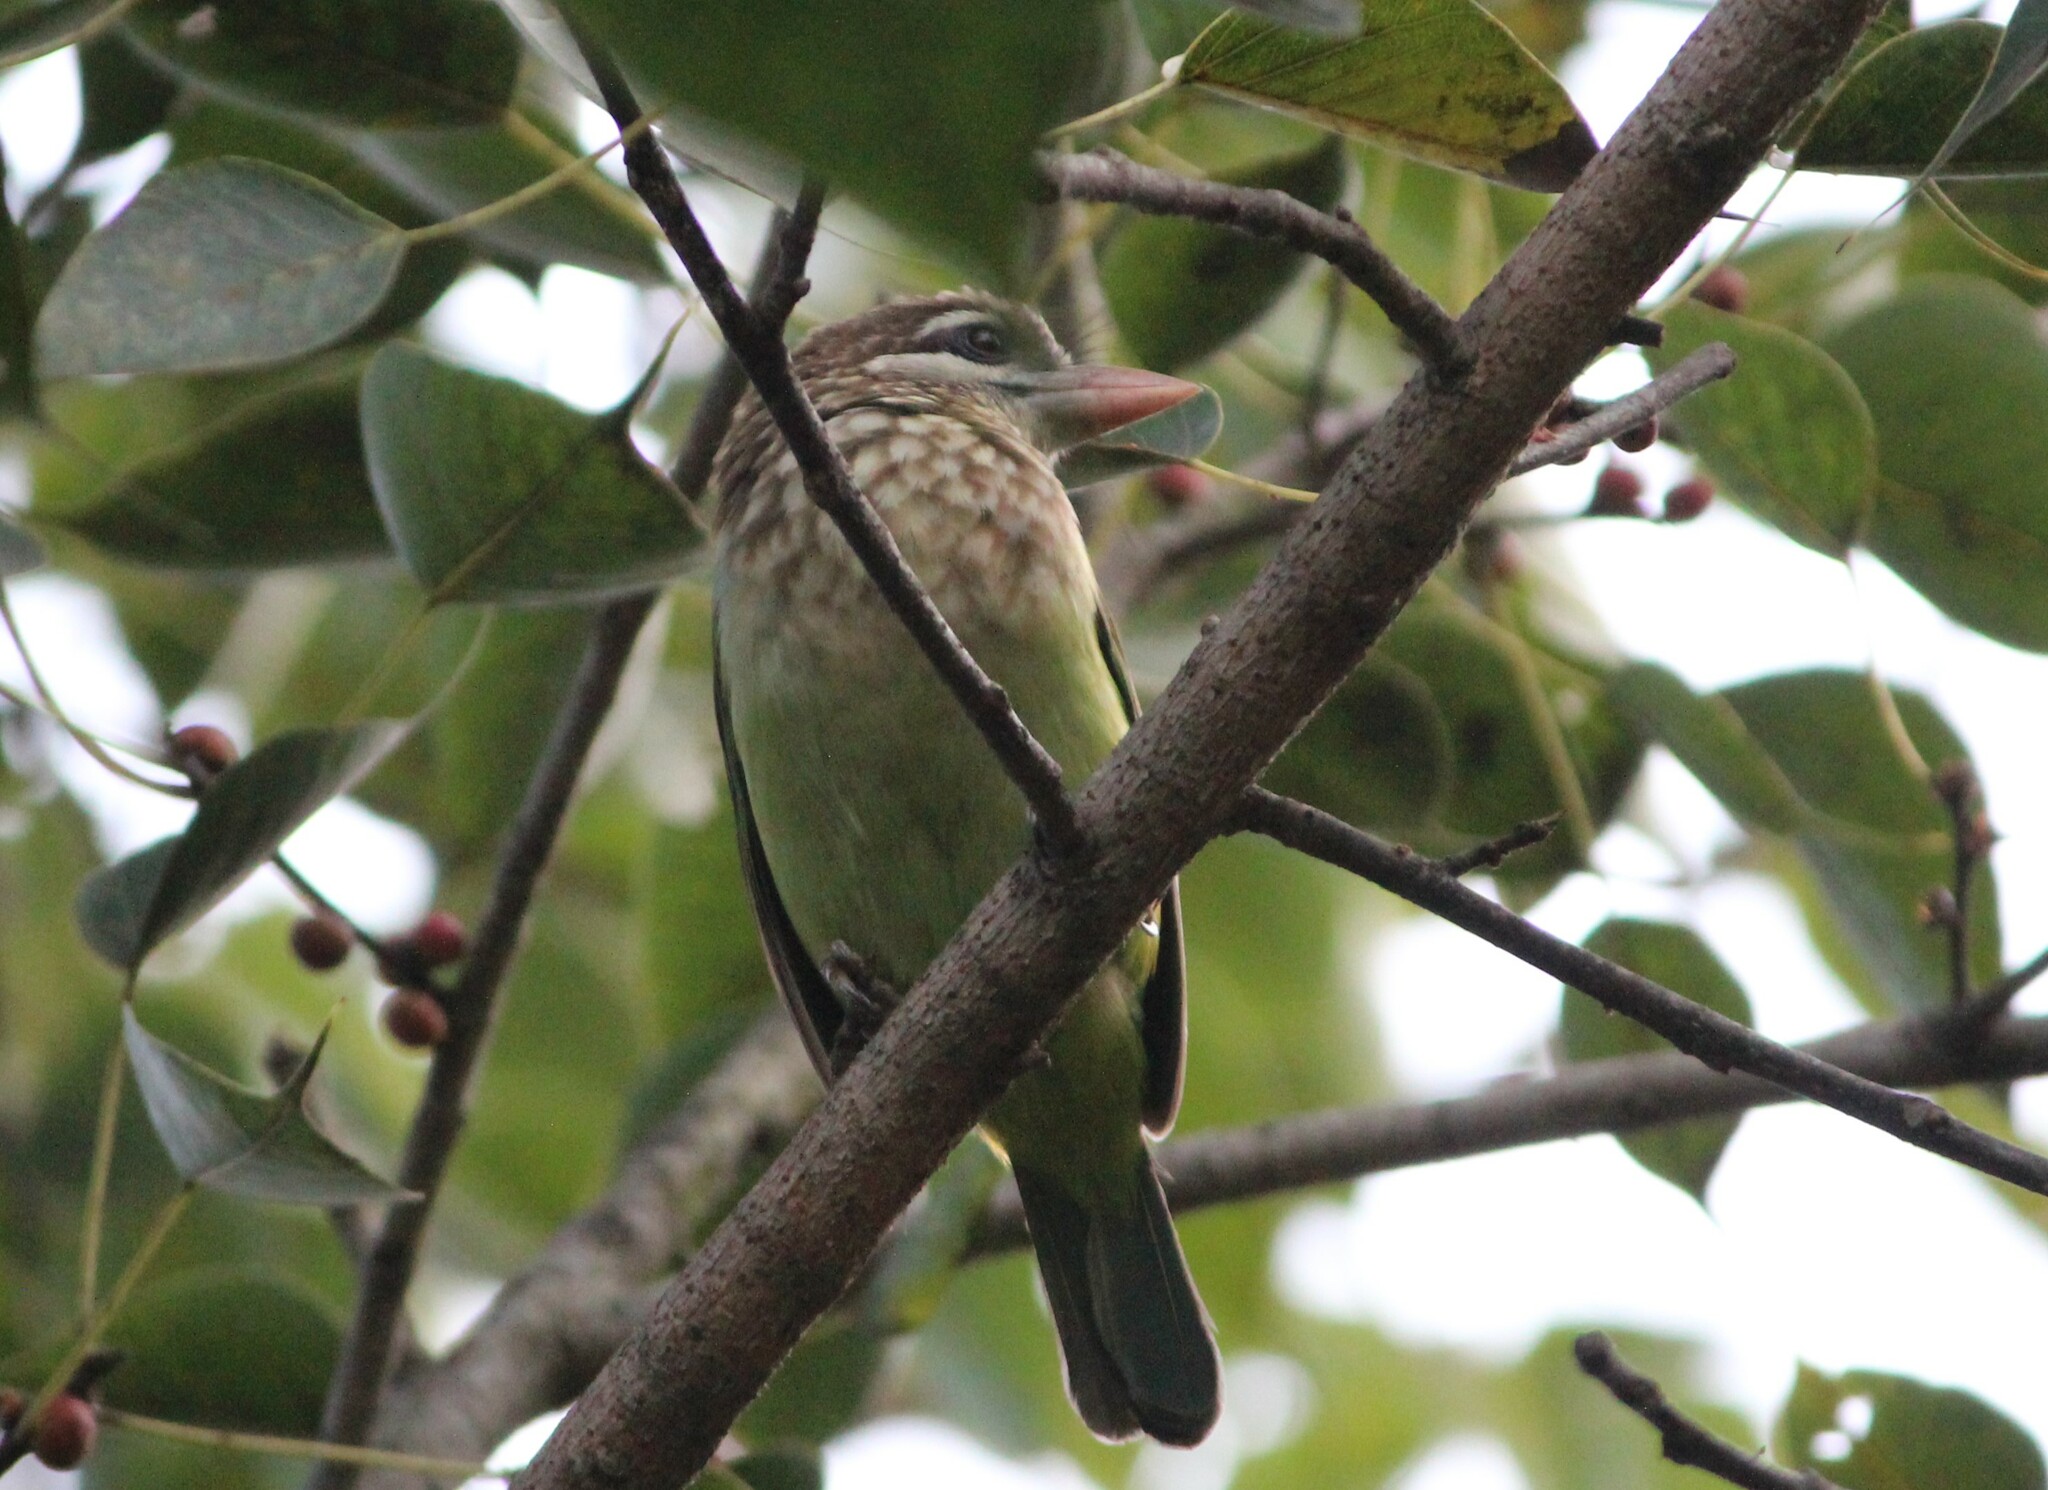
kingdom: Animalia
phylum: Chordata
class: Aves
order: Piciformes
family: Megalaimidae
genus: Psilopogon
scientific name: Psilopogon viridis
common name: White-cheeked barbet
